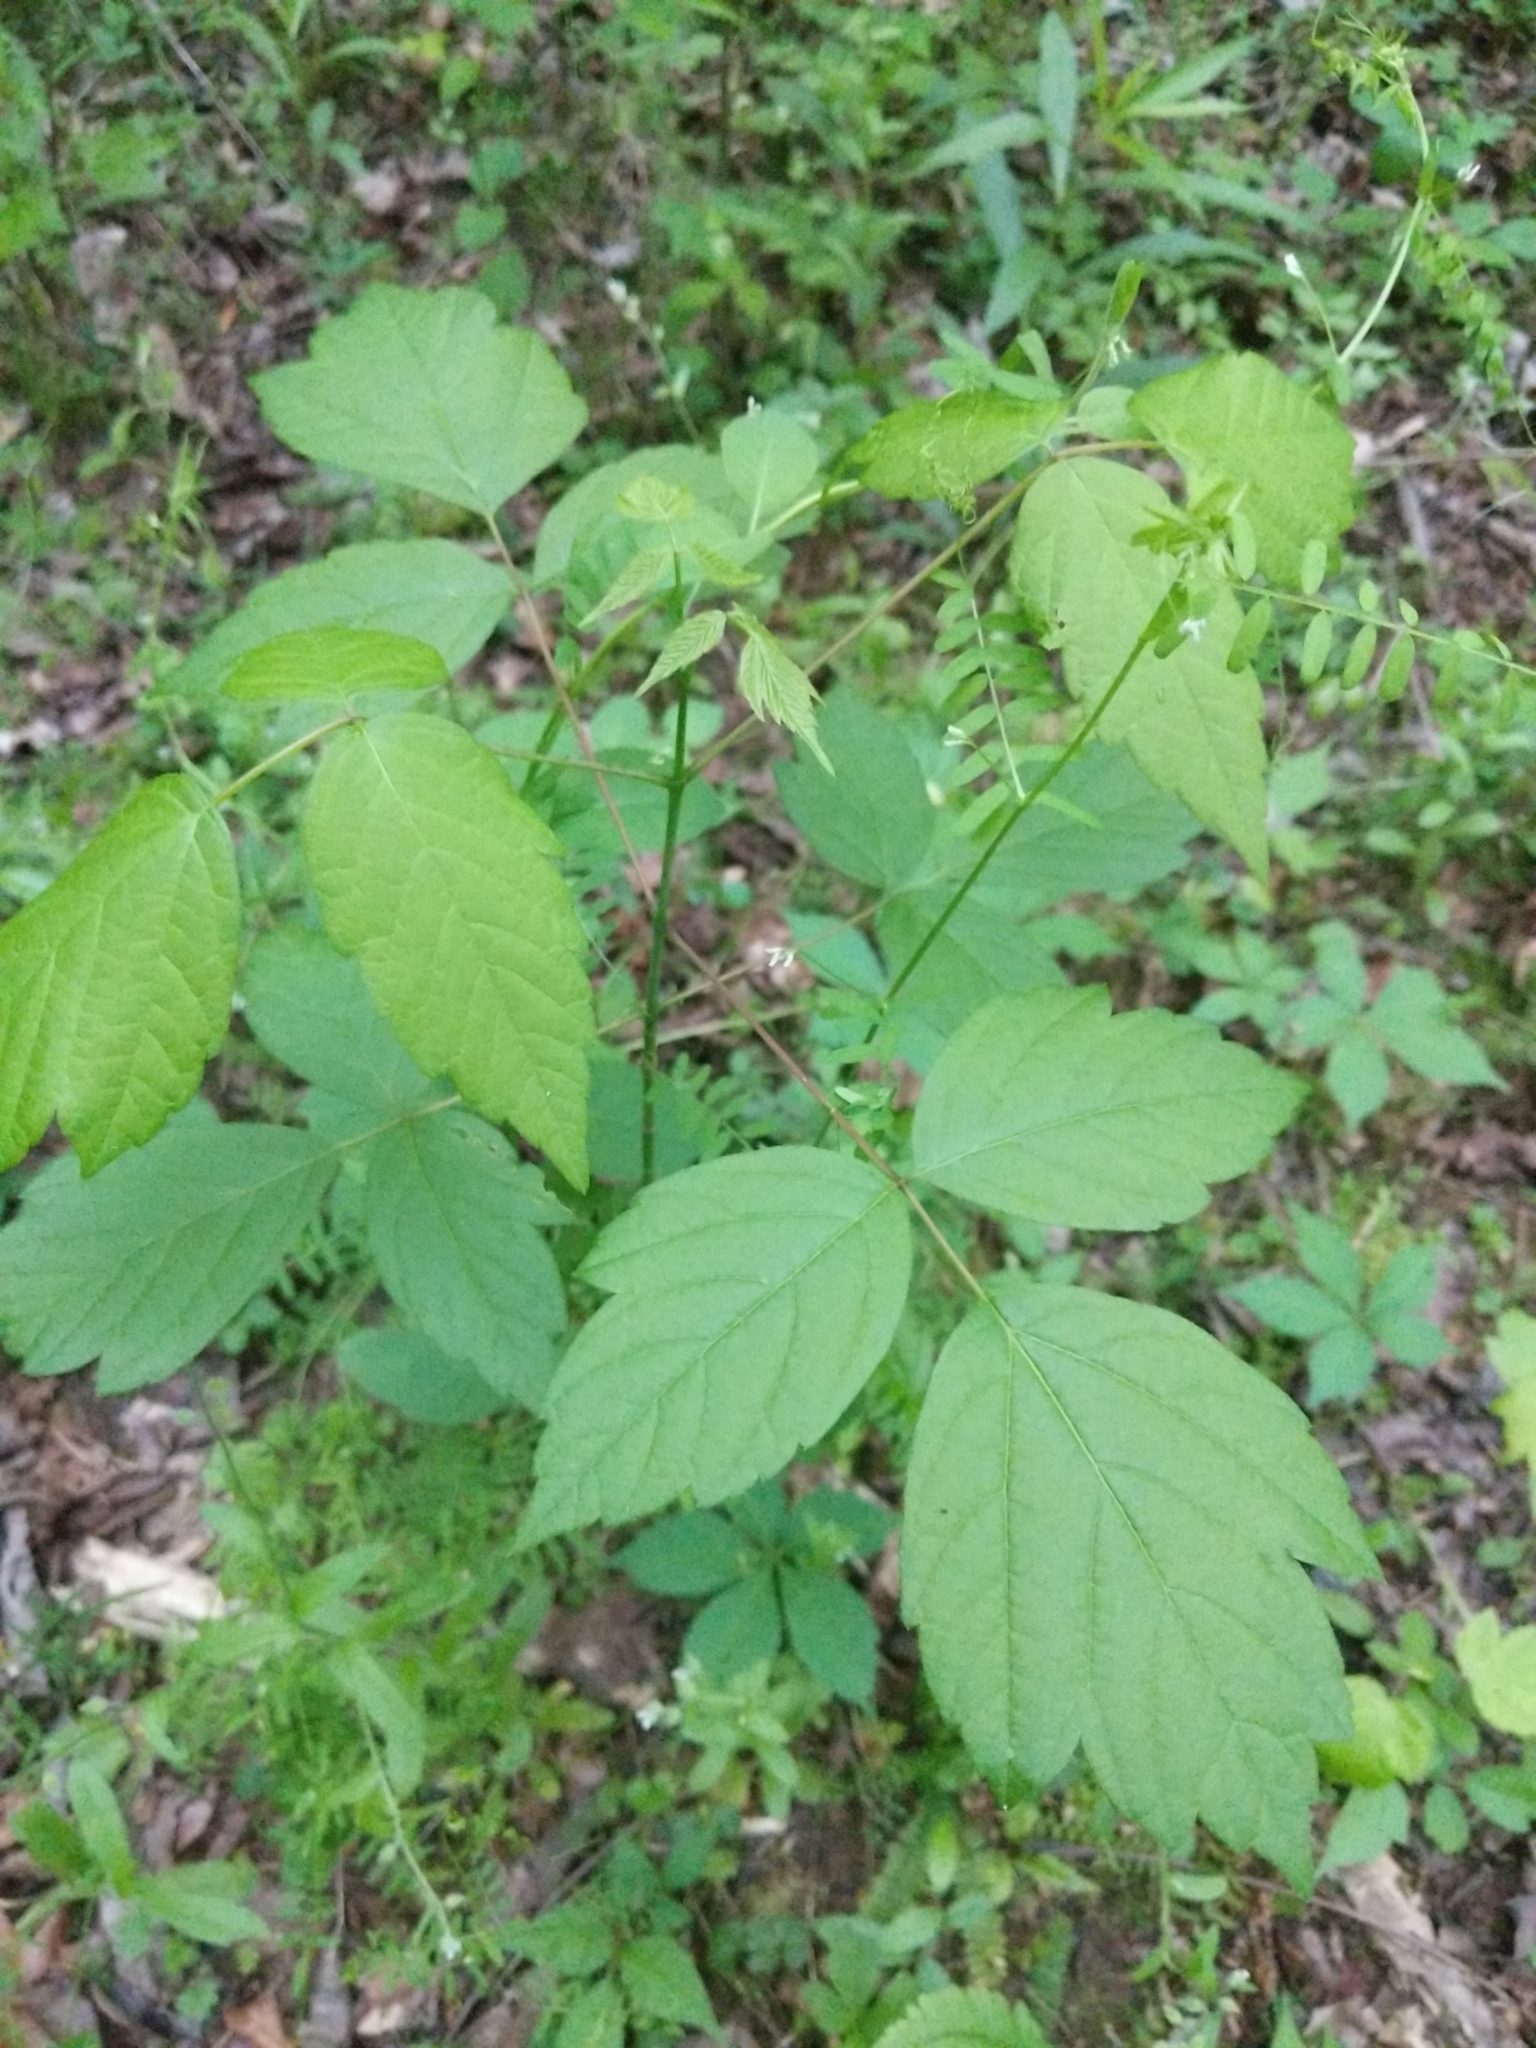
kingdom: Plantae
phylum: Tracheophyta
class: Magnoliopsida
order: Sapindales
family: Sapindaceae
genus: Acer
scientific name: Acer negundo
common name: Ashleaf maple
